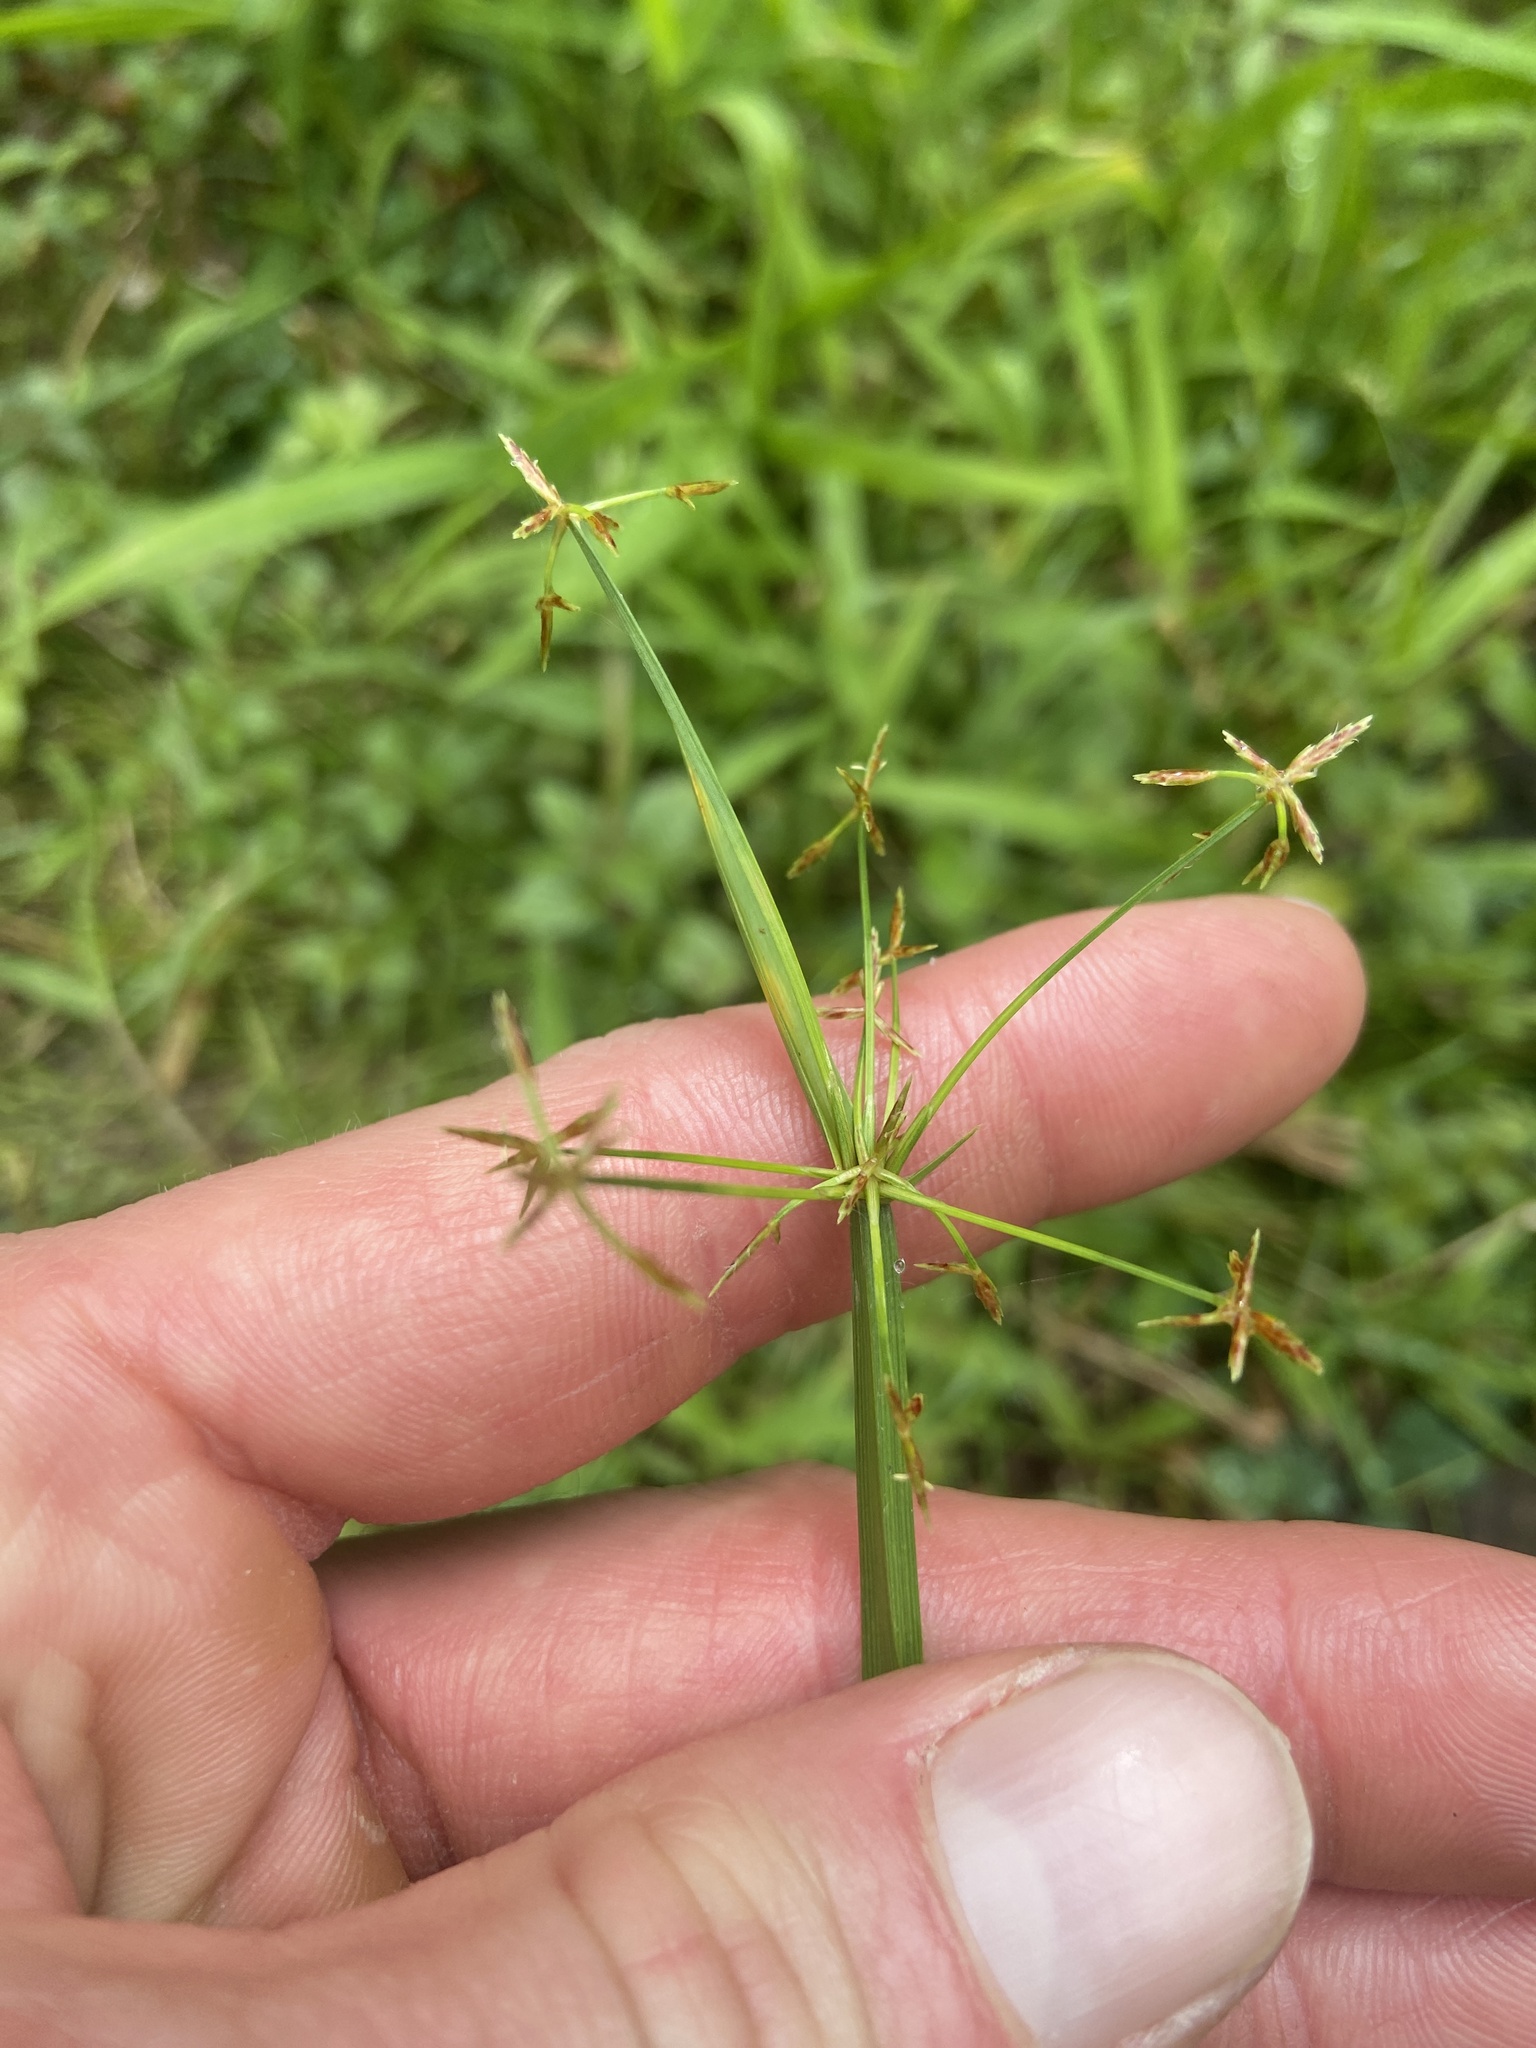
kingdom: Plantae
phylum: Tracheophyta
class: Liliopsida
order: Poales
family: Cyperaceae
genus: Cyperus
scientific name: Cyperus haspan
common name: Haspan flatsedge
